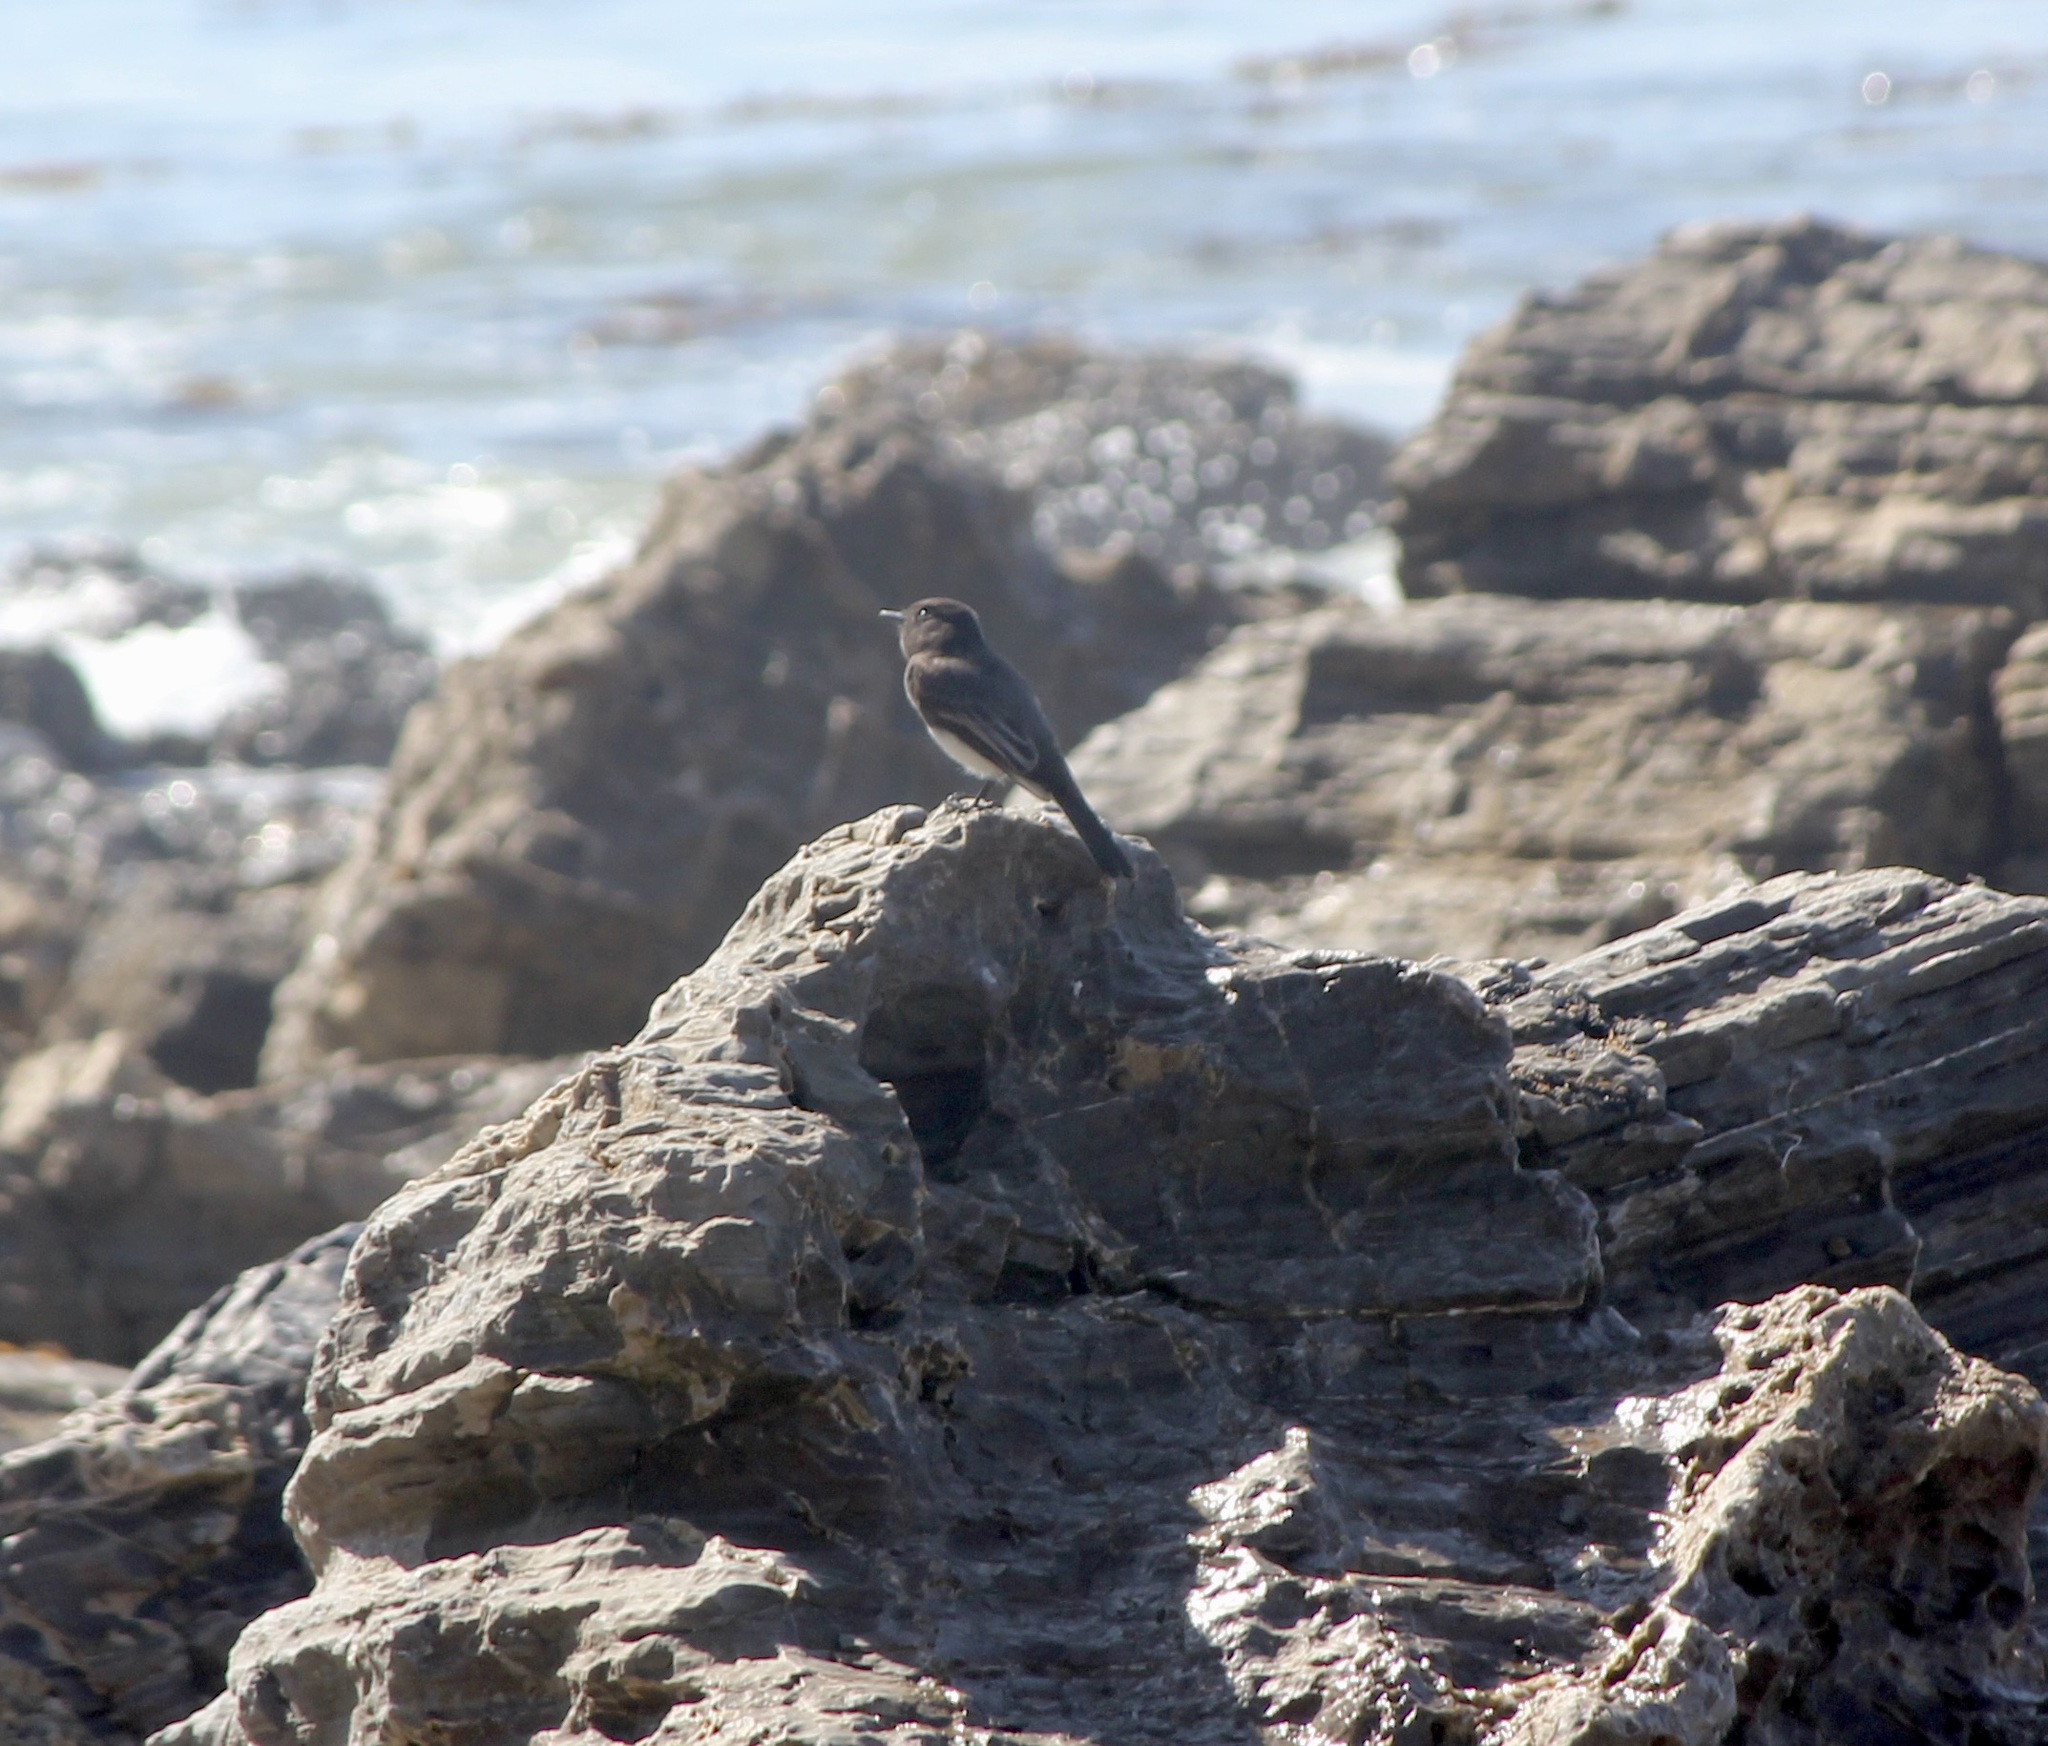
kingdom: Animalia
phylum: Chordata
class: Aves
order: Passeriformes
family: Tyrannidae
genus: Sayornis
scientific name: Sayornis nigricans
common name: Black phoebe
